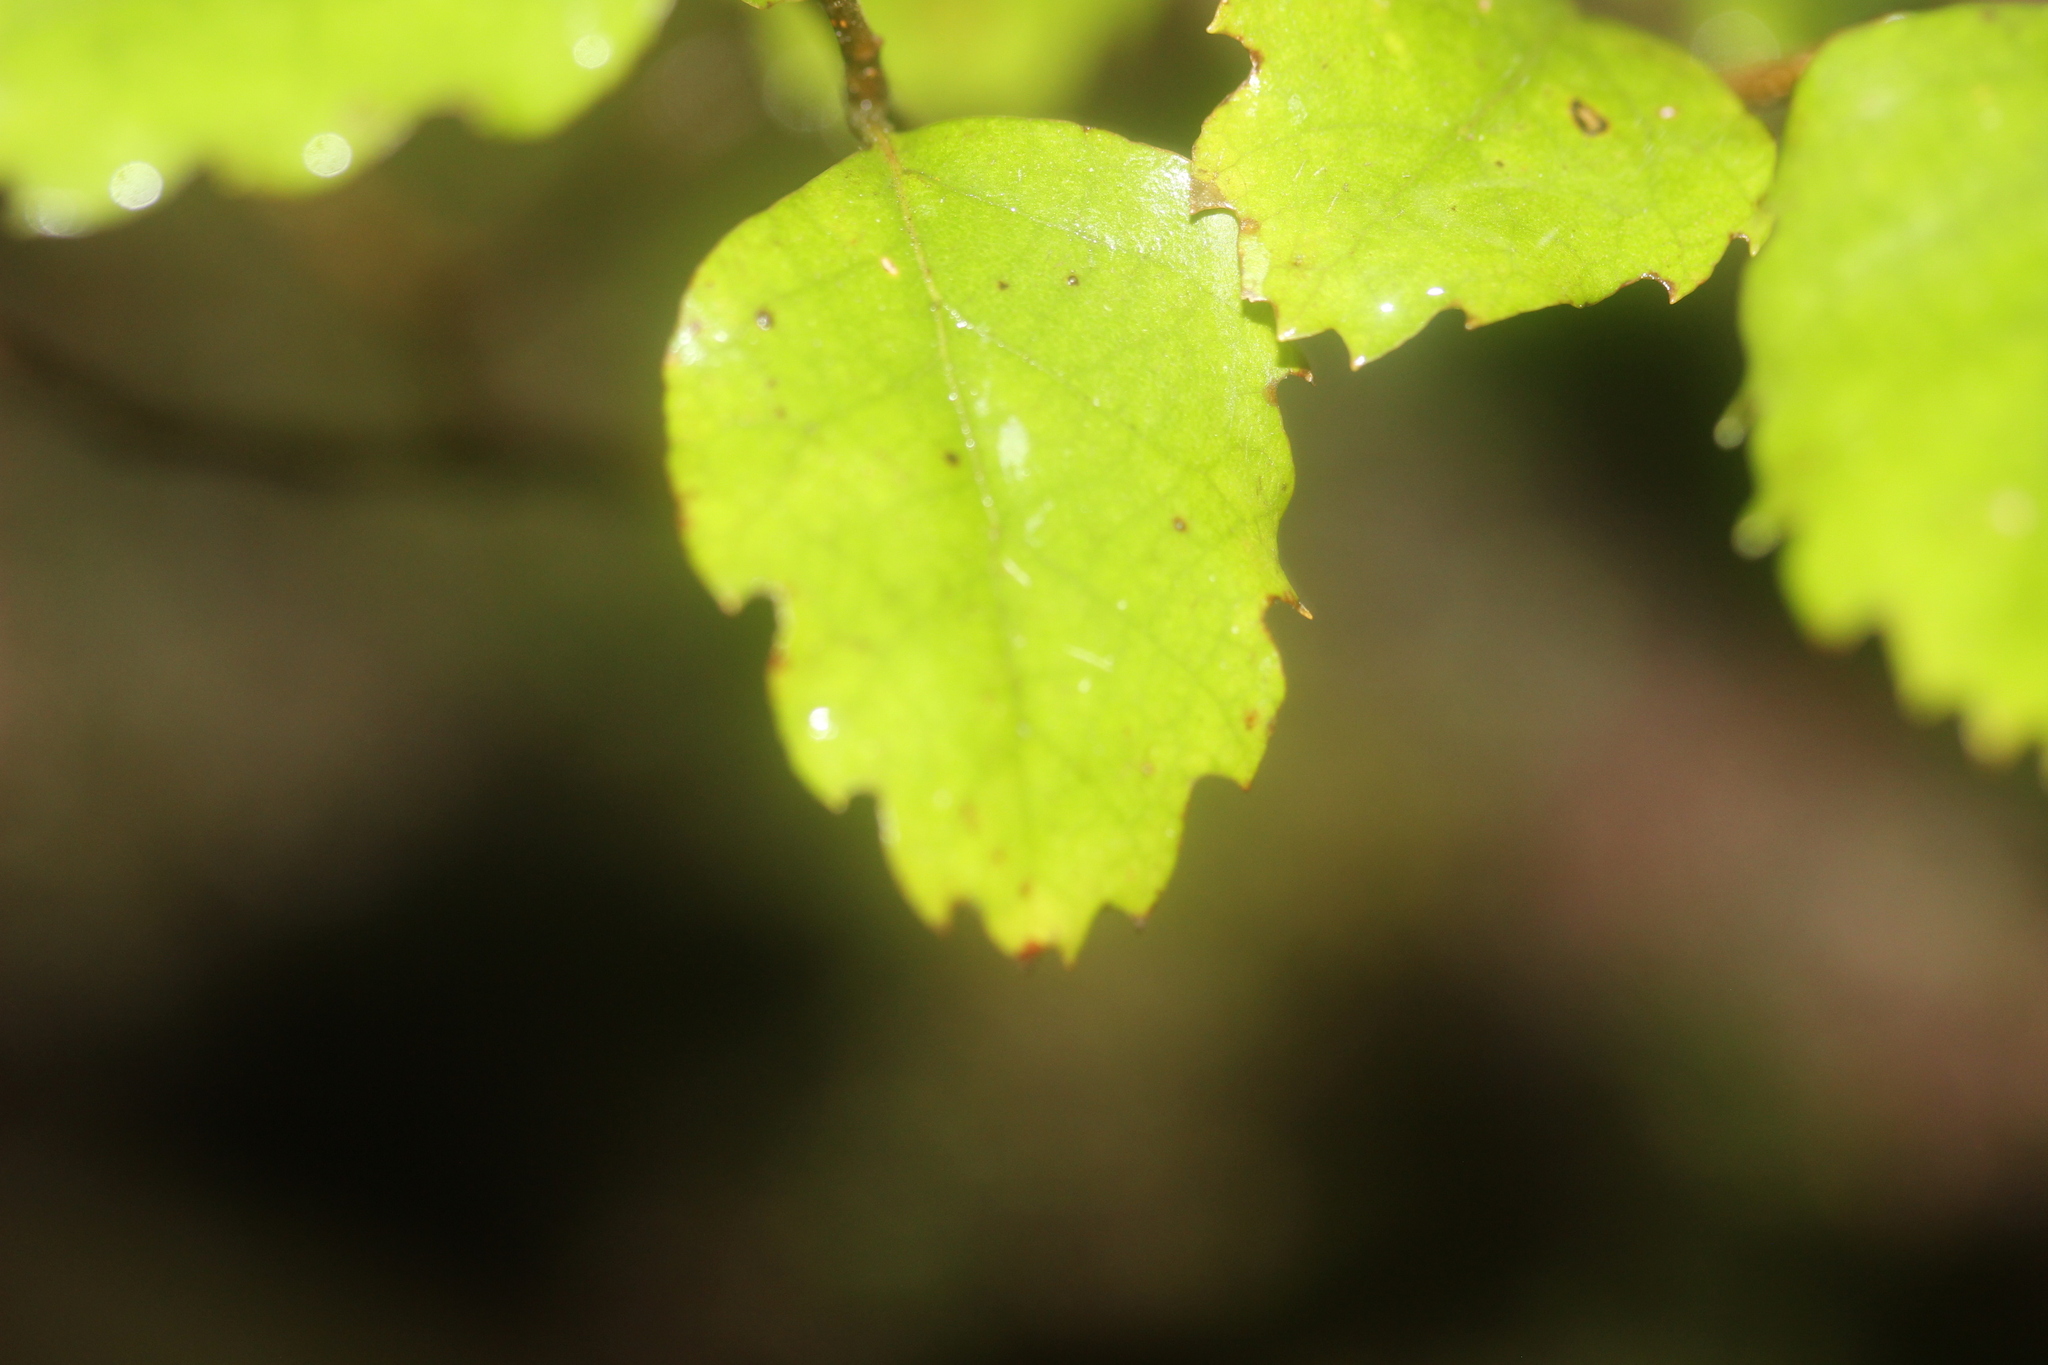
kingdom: Plantae
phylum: Tracheophyta
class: Magnoliopsida
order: Fagales
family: Nothofagaceae
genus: Nothofagus
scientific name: Nothofagus fusca
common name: Red beech
